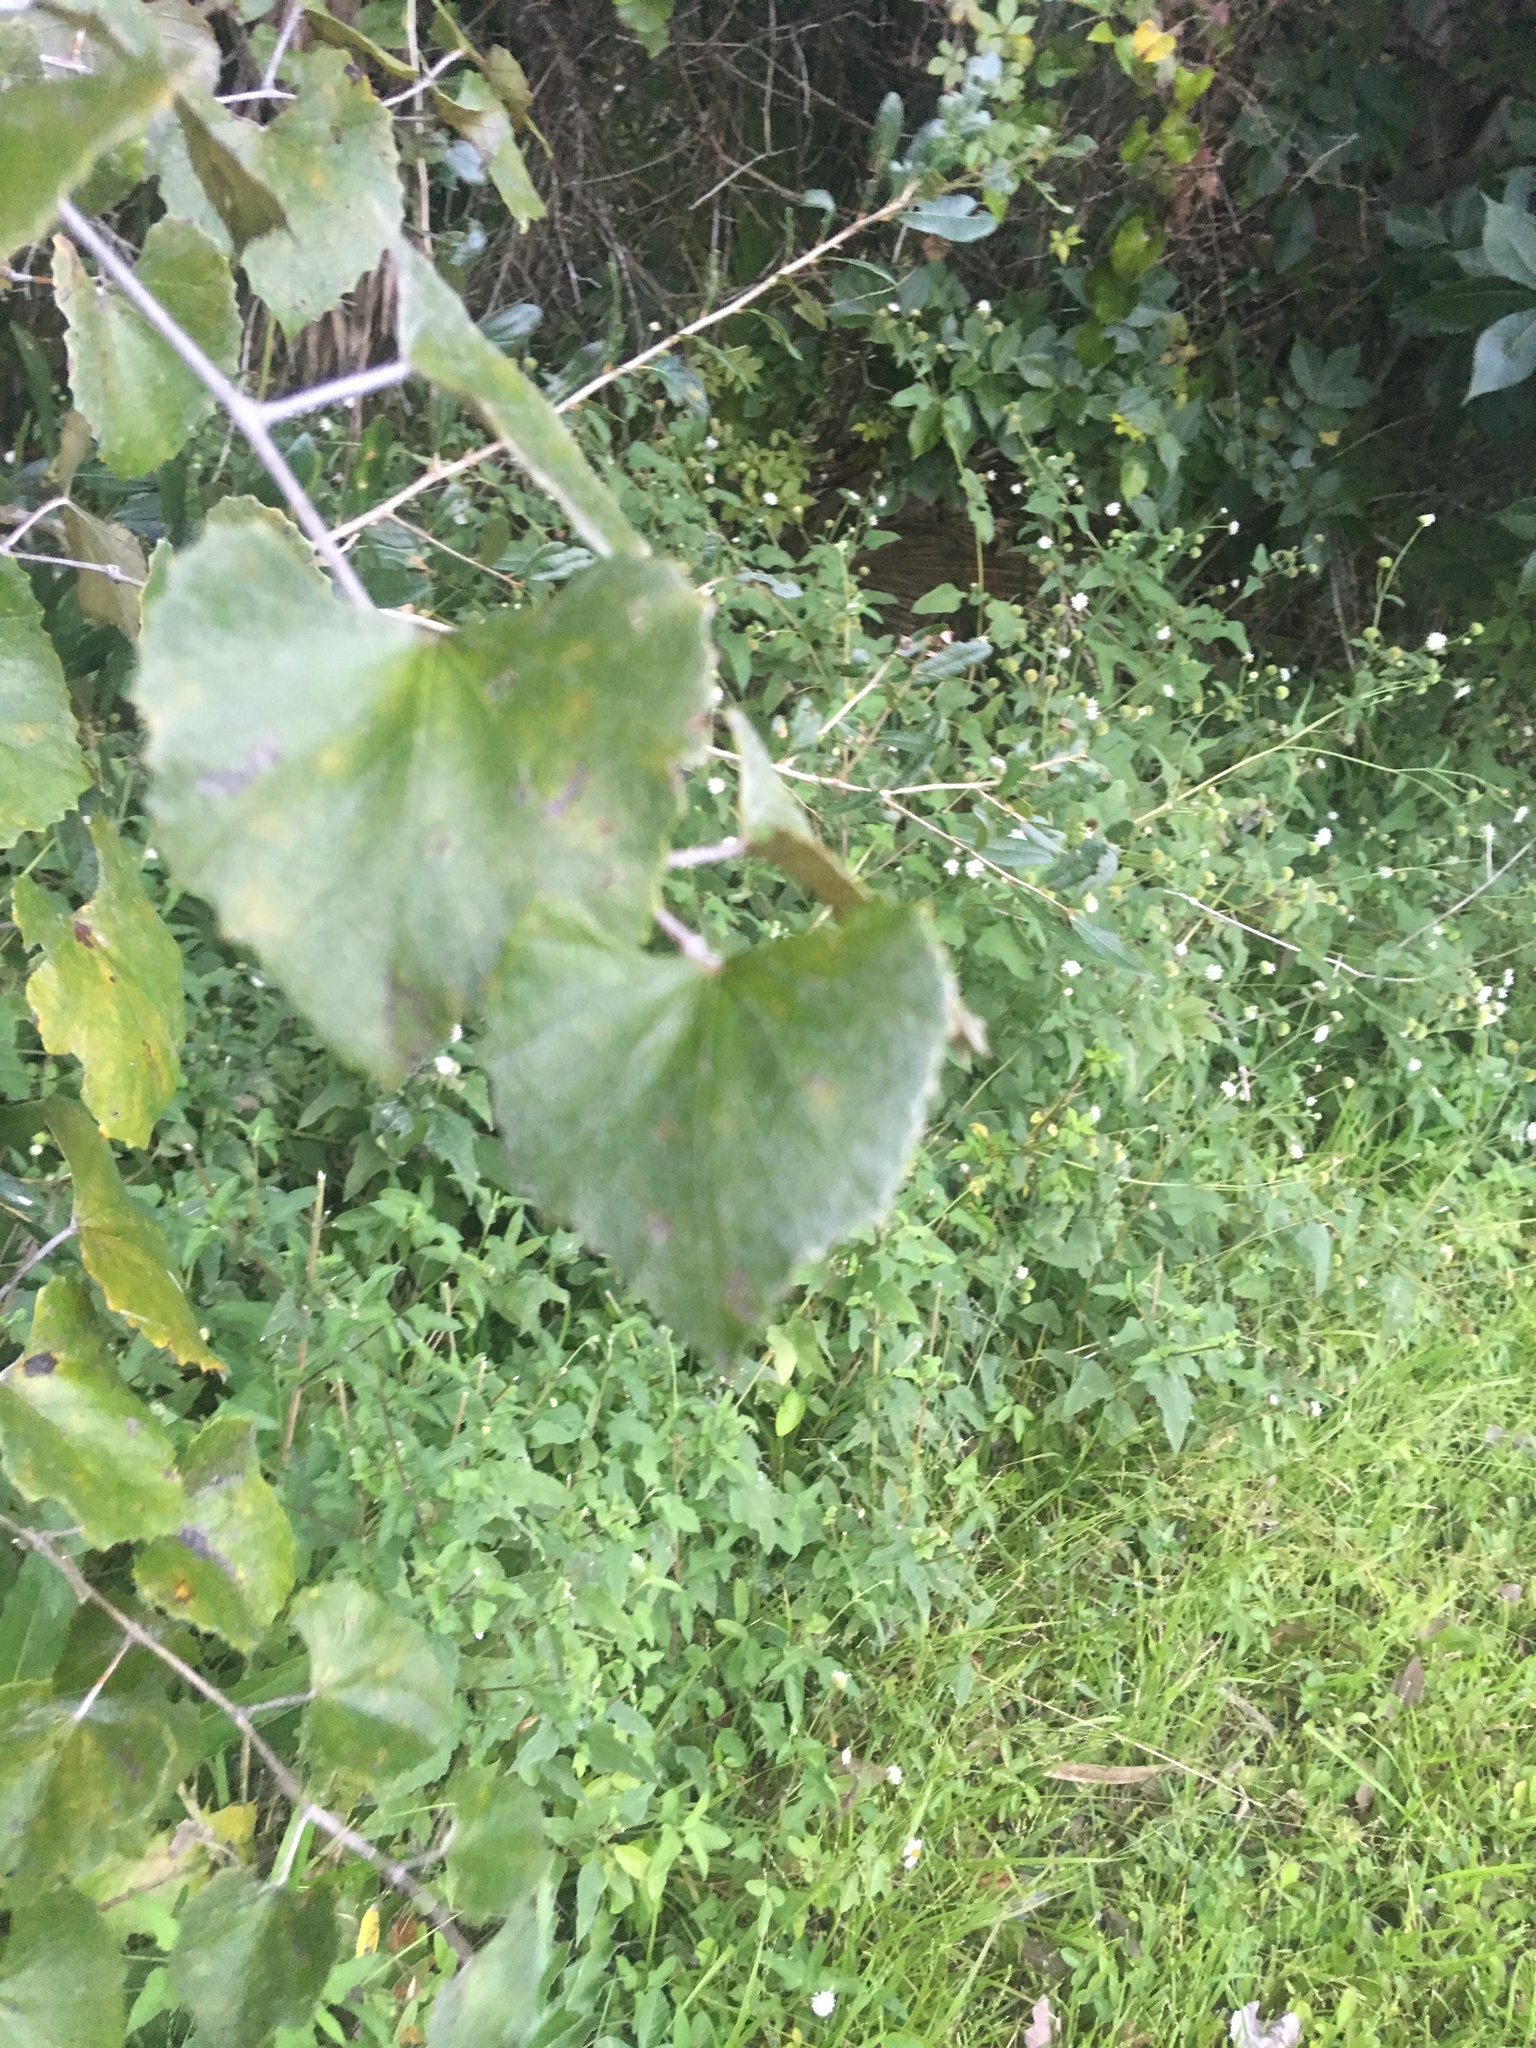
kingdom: Plantae
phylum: Tracheophyta
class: Magnoliopsida
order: Vitales
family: Vitaceae
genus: Vitis
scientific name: Vitis shuttleworthii
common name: Caloosa grape
